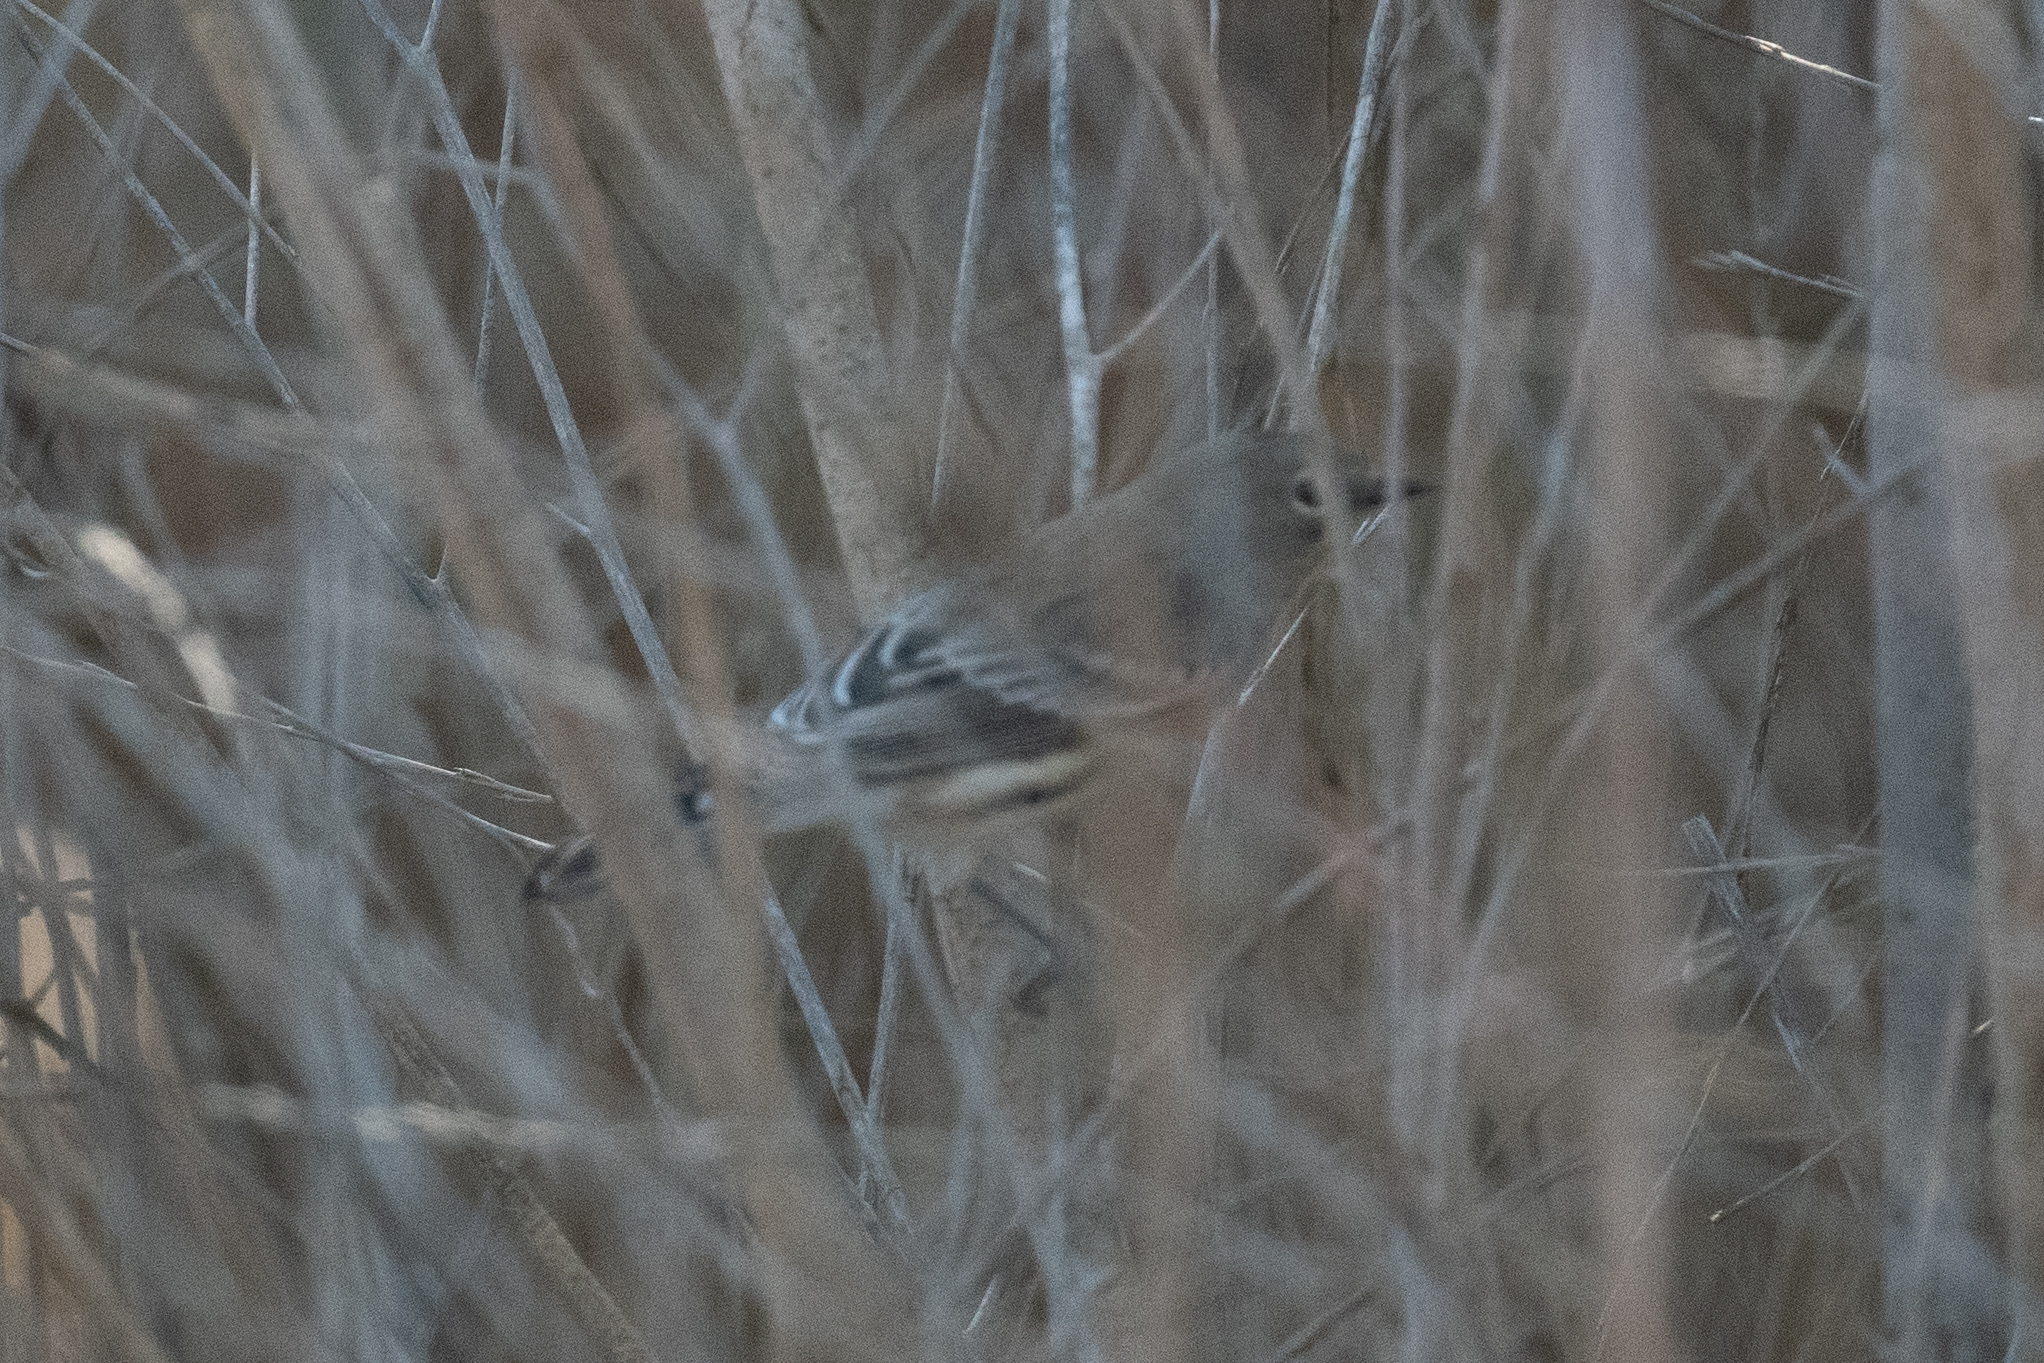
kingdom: Animalia
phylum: Chordata
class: Aves
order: Passeriformes
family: Parulidae
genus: Setophaga
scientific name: Setophaga coronata
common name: Myrtle warbler
